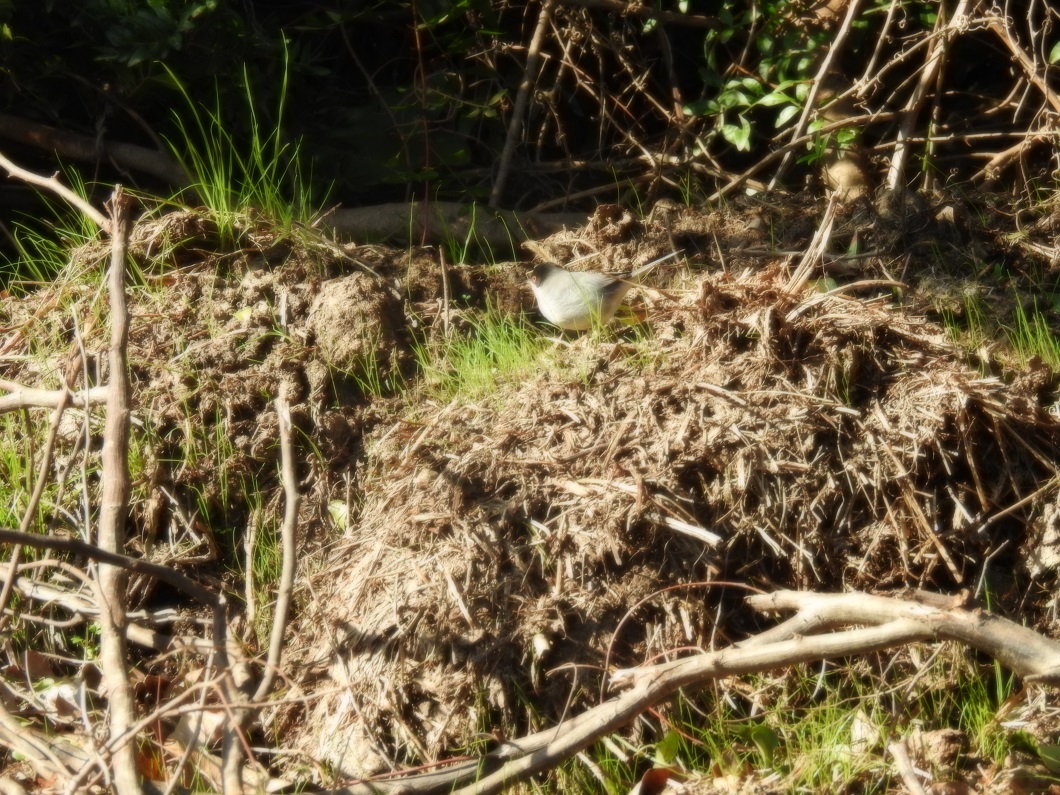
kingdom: Animalia
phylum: Chordata
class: Aves
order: Passeriformes
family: Sylviidae
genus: Curruca
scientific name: Curruca melanocephala
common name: Sardinian warbler
